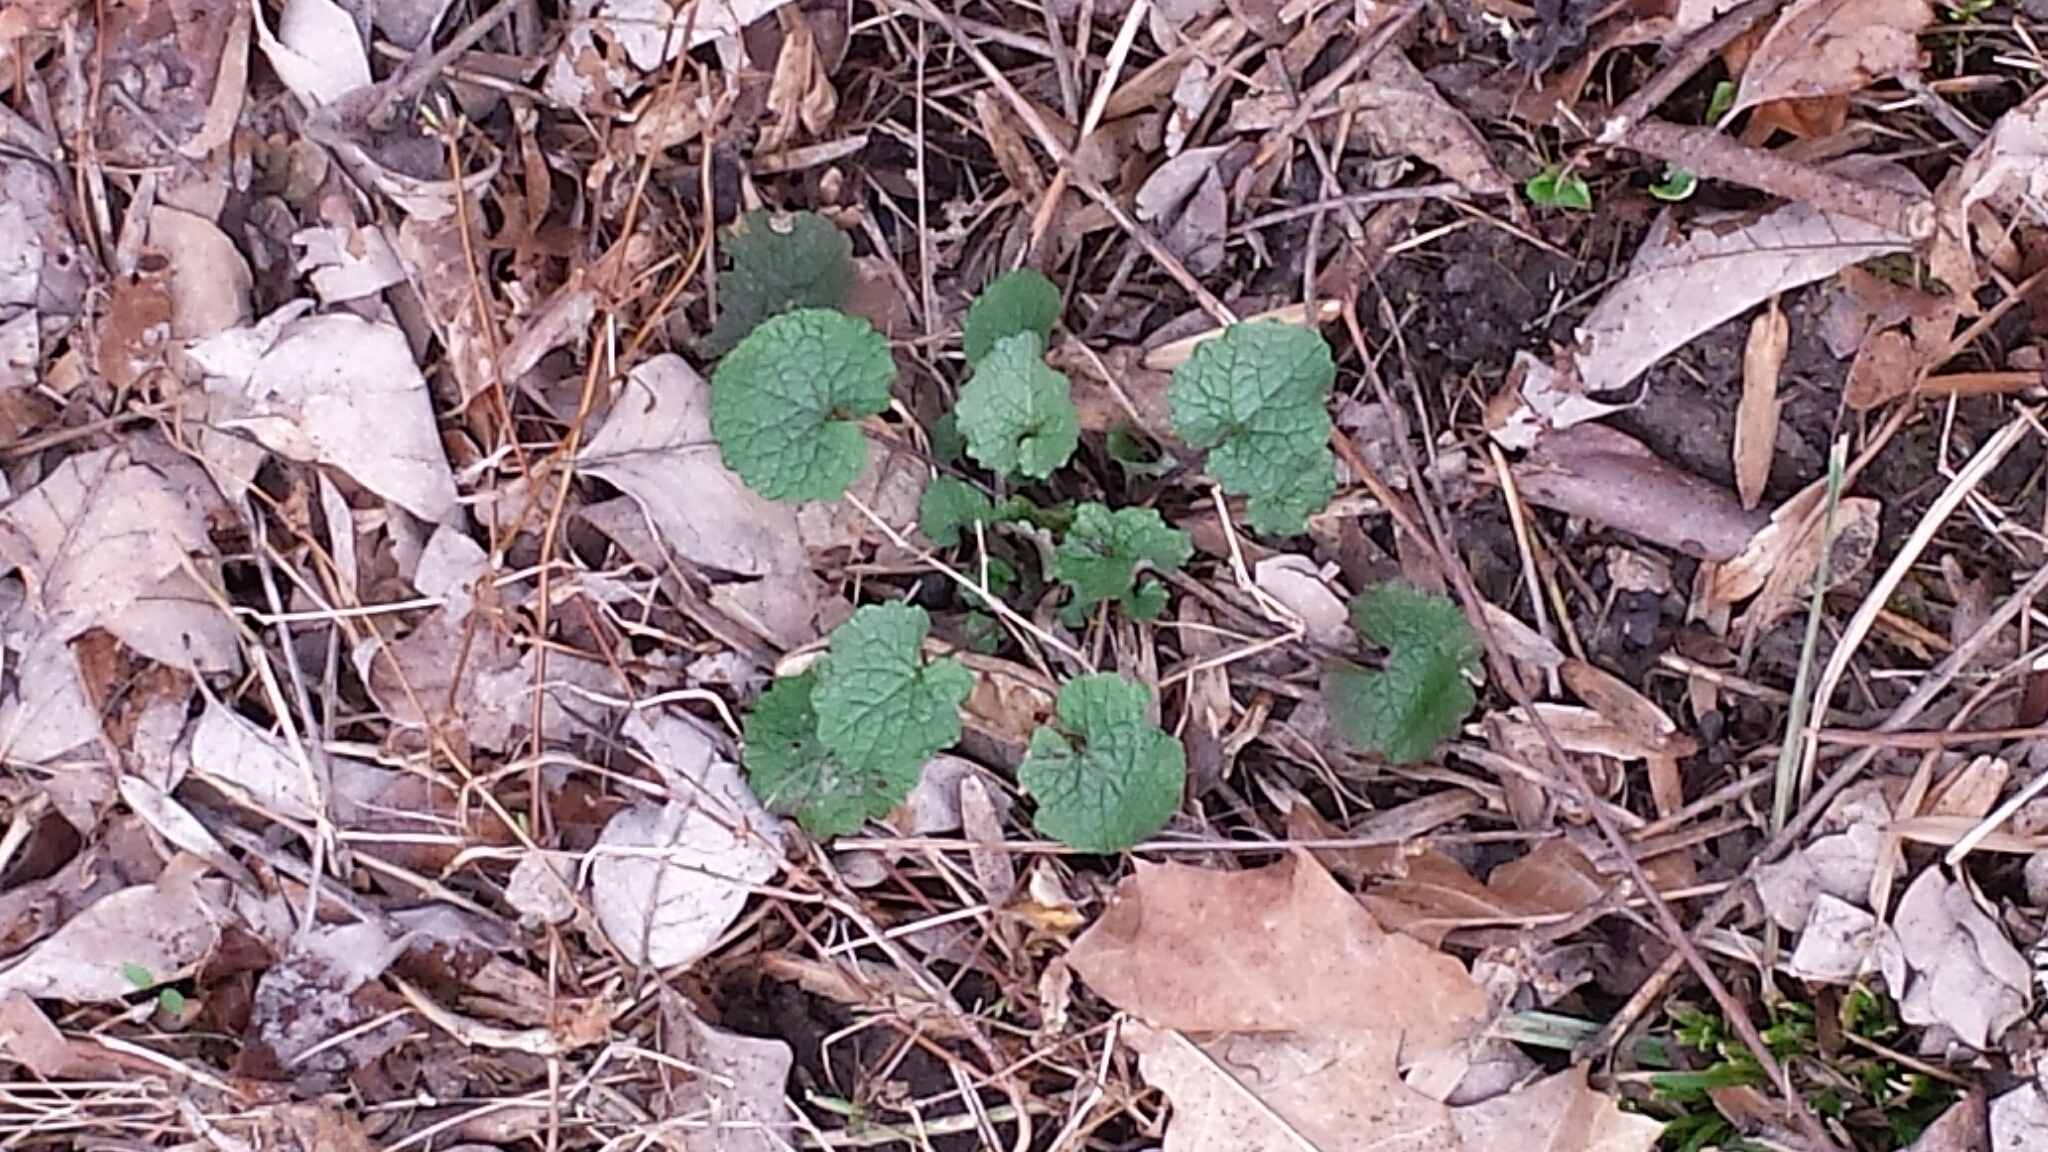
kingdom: Plantae
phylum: Tracheophyta
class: Magnoliopsida
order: Brassicales
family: Brassicaceae
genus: Alliaria
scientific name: Alliaria petiolata
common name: Garlic mustard
